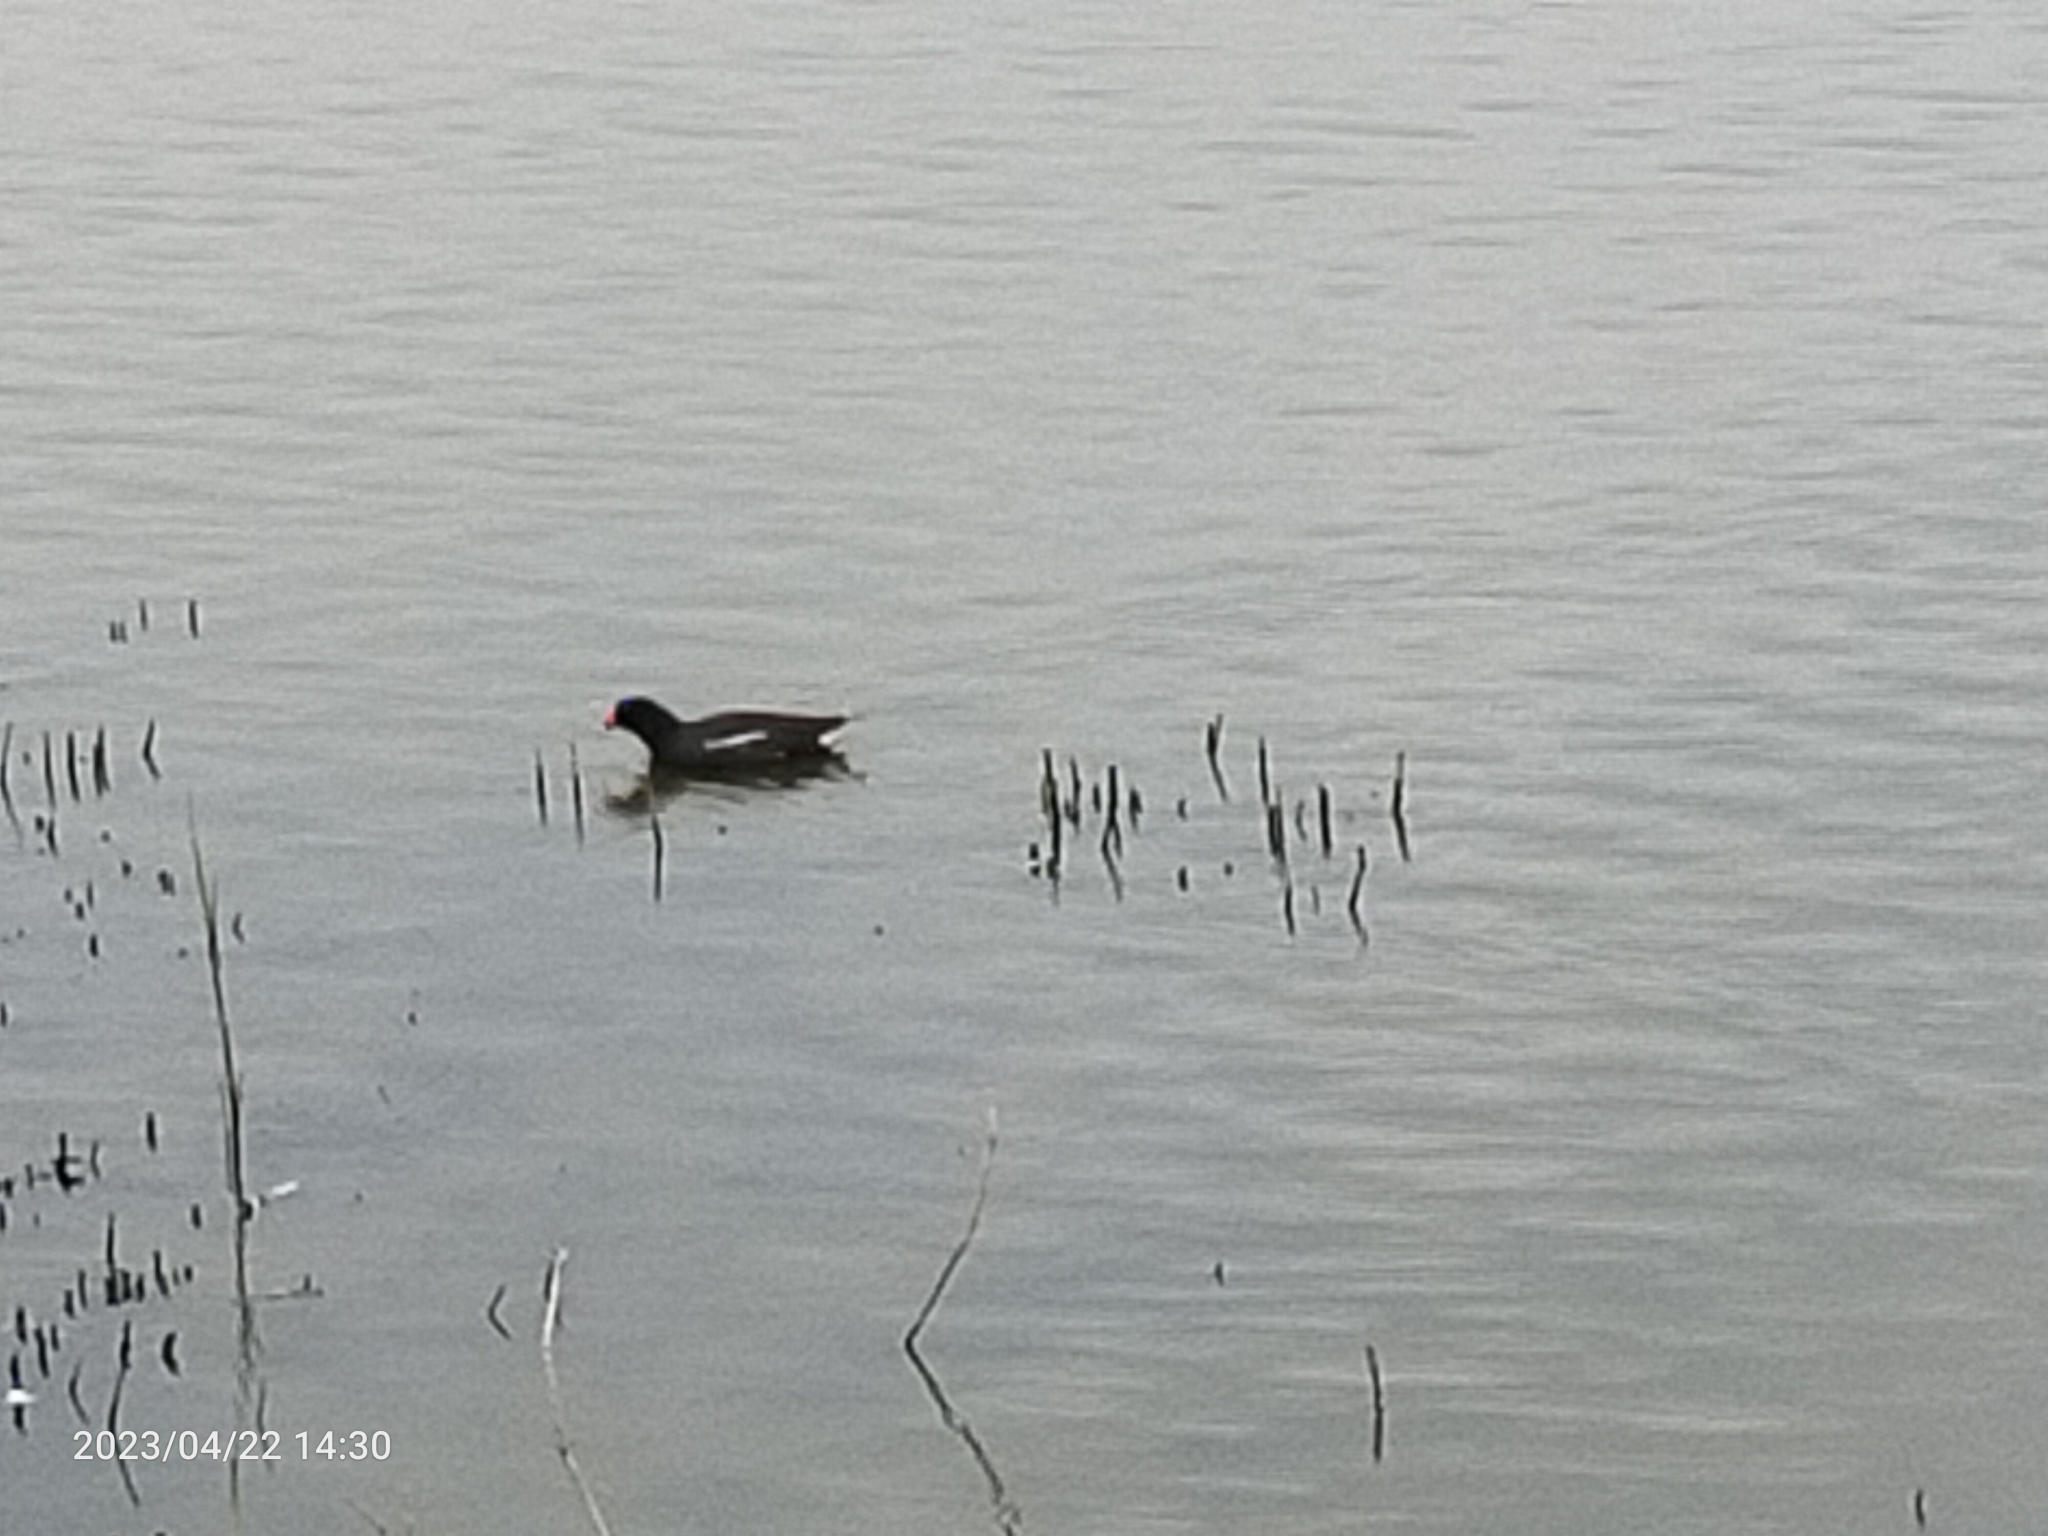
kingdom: Animalia
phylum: Chordata
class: Aves
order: Gruiformes
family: Rallidae
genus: Gallinula
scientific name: Gallinula chloropus
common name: Common moorhen
